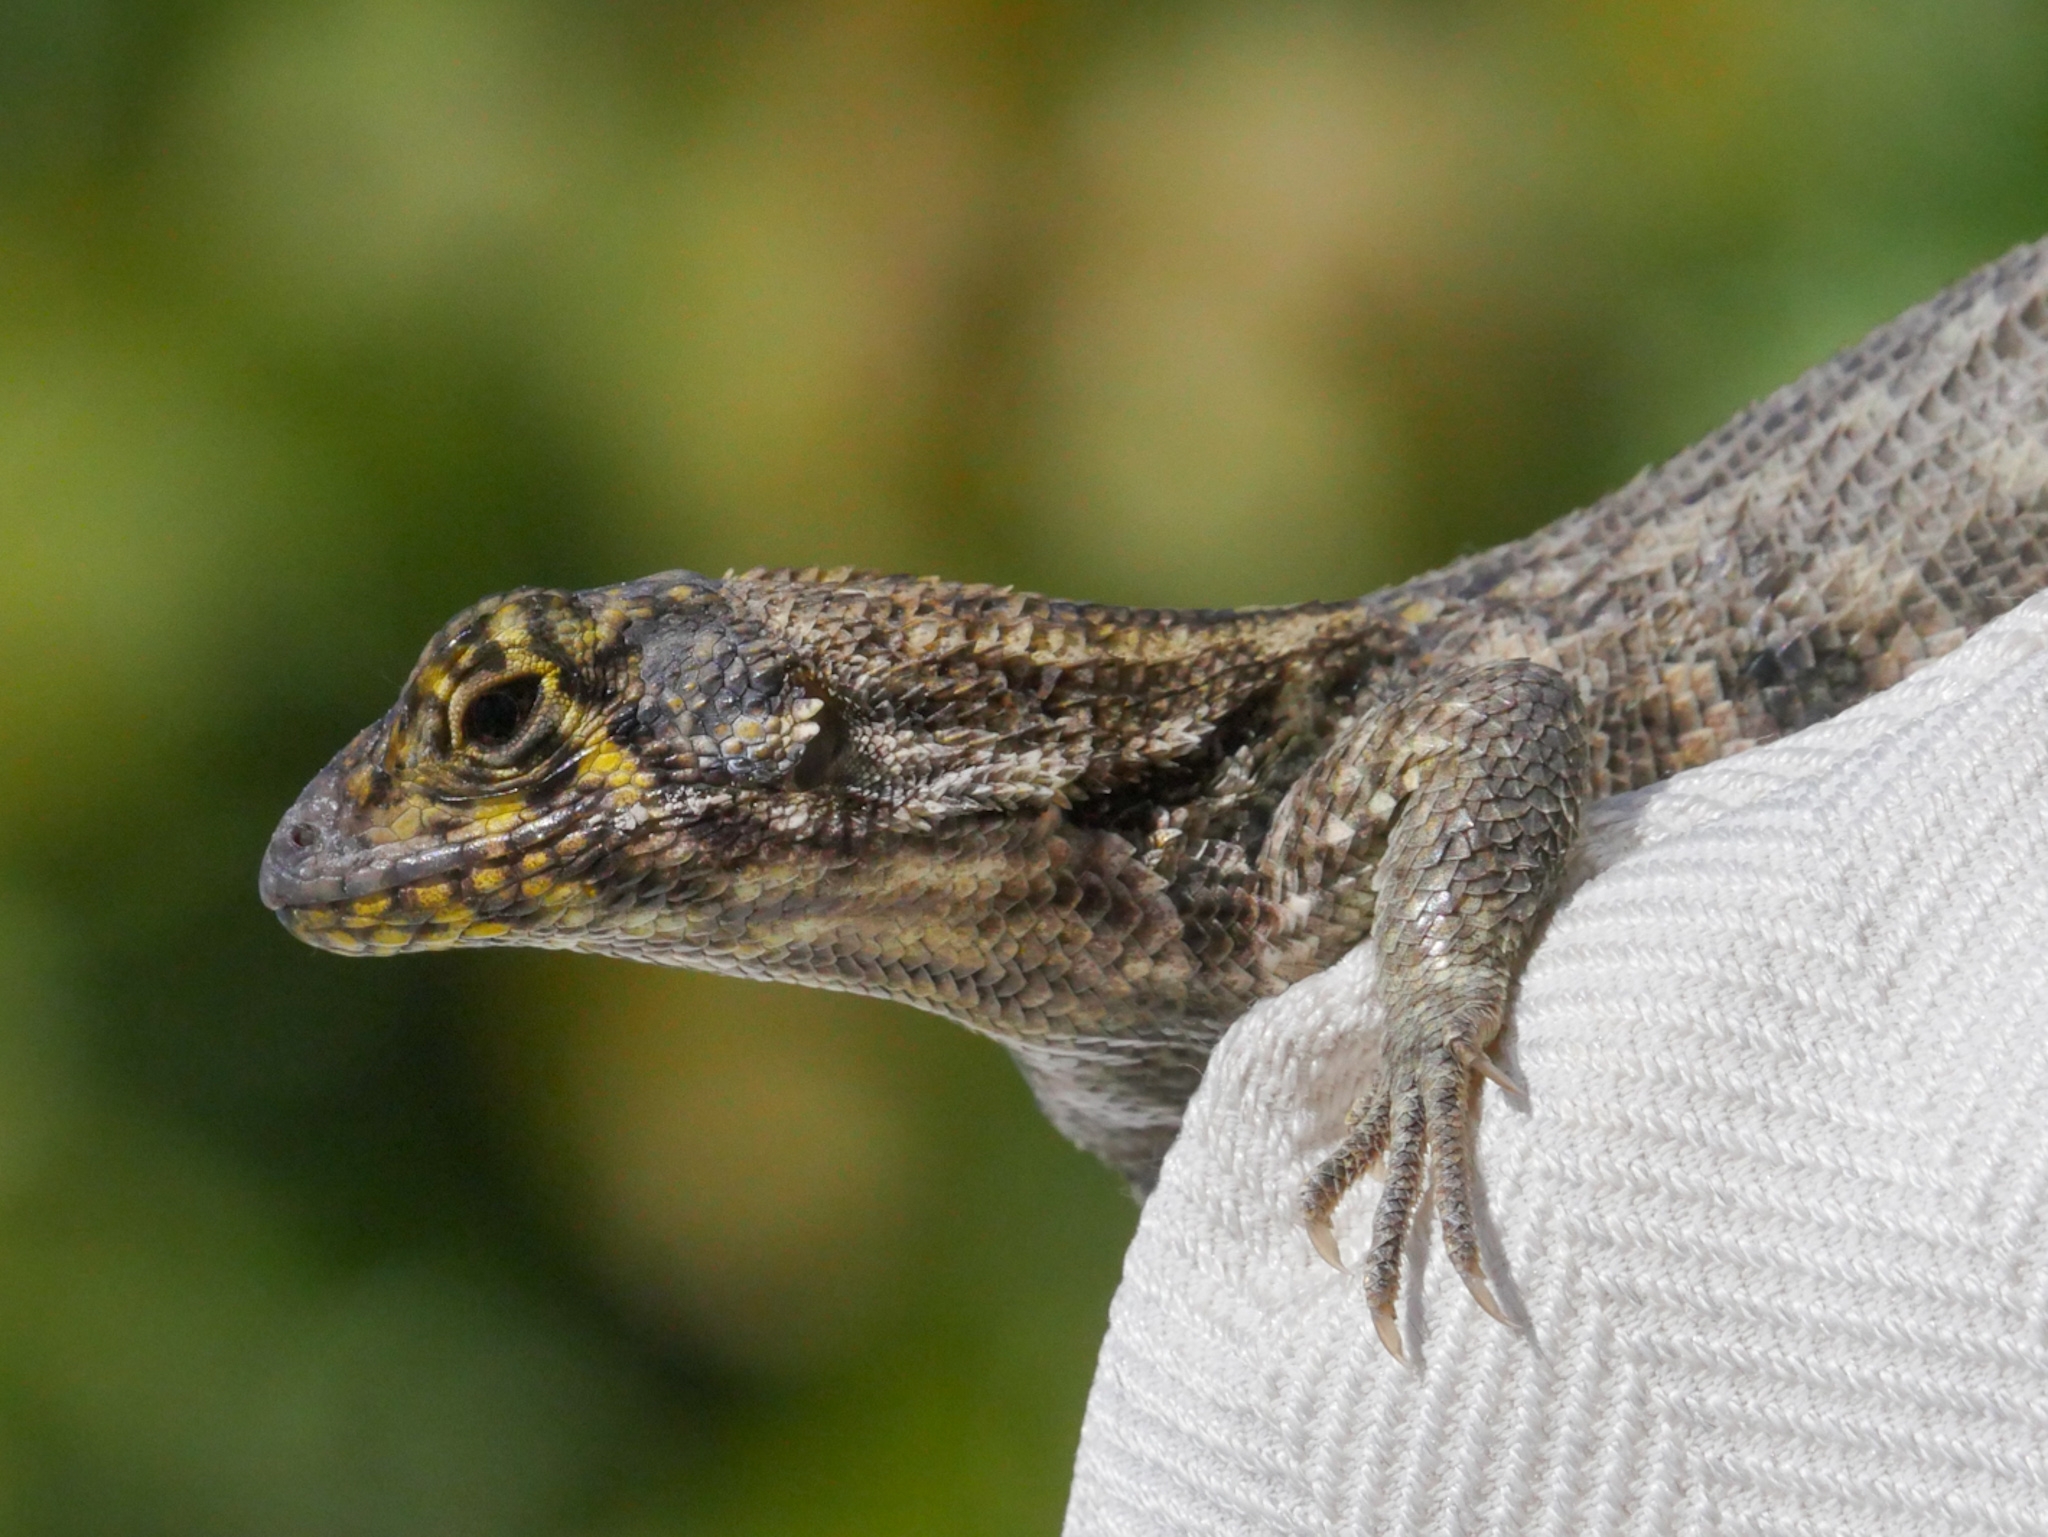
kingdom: Animalia
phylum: Chordata
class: Squamata
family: Leiocephalidae
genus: Leiocephalus
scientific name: Leiocephalus varius
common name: Cayman curlytail
